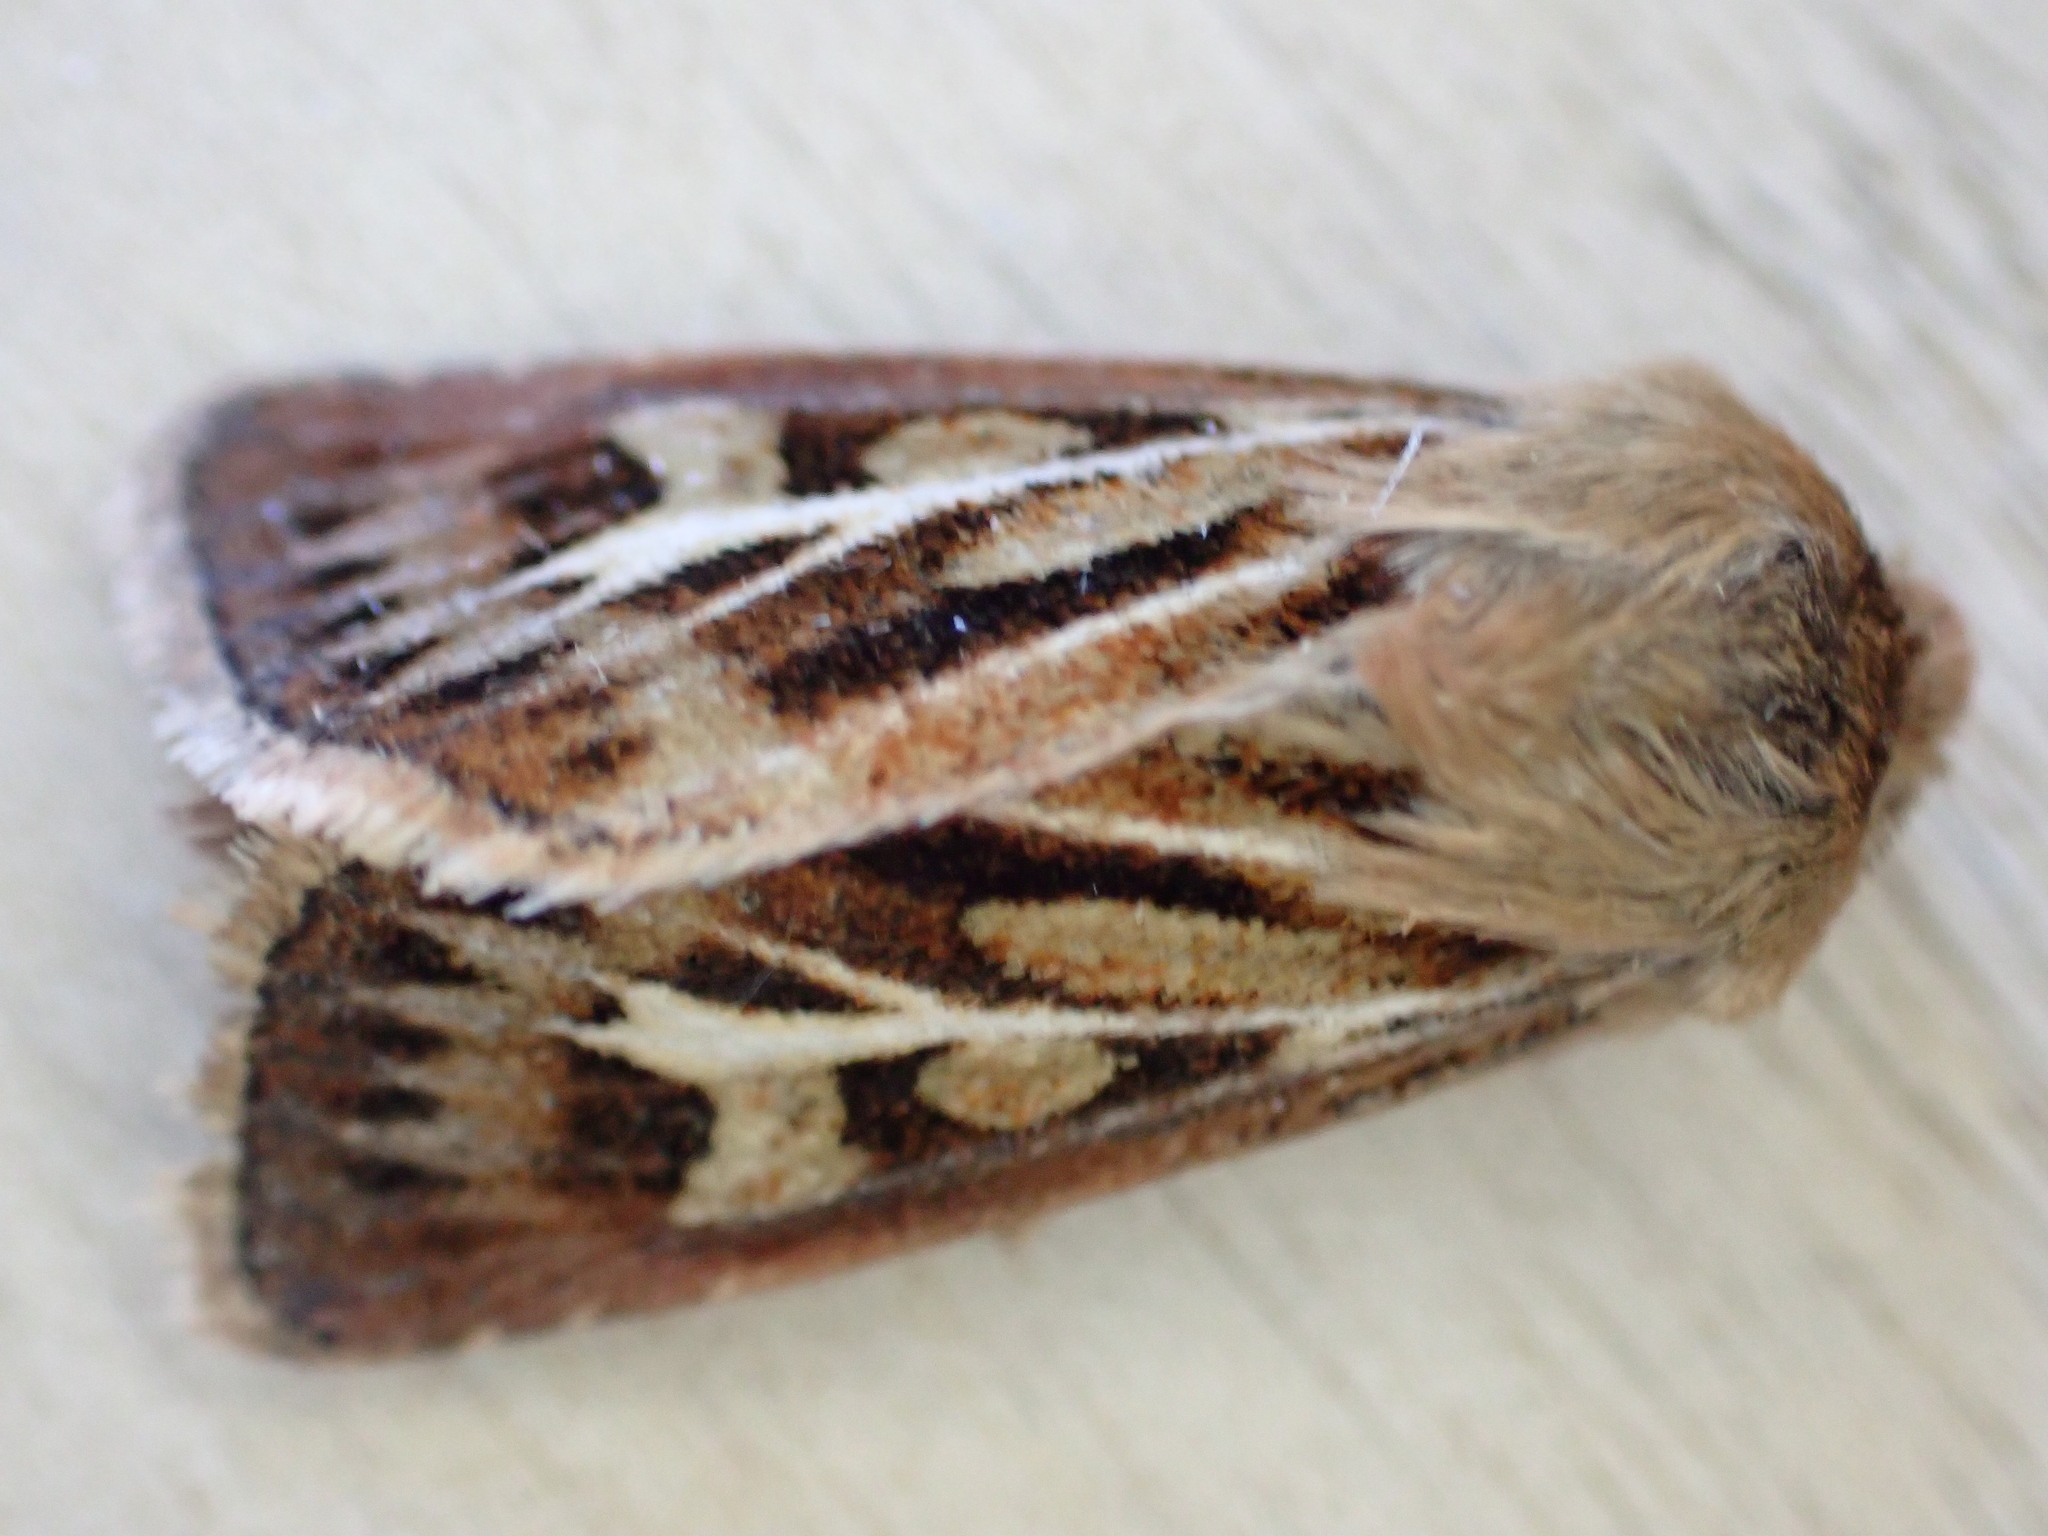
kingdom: Animalia
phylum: Arthropoda
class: Insecta
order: Lepidoptera
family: Noctuidae
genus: Cerapteryx
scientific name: Cerapteryx graminis
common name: Antler moth
